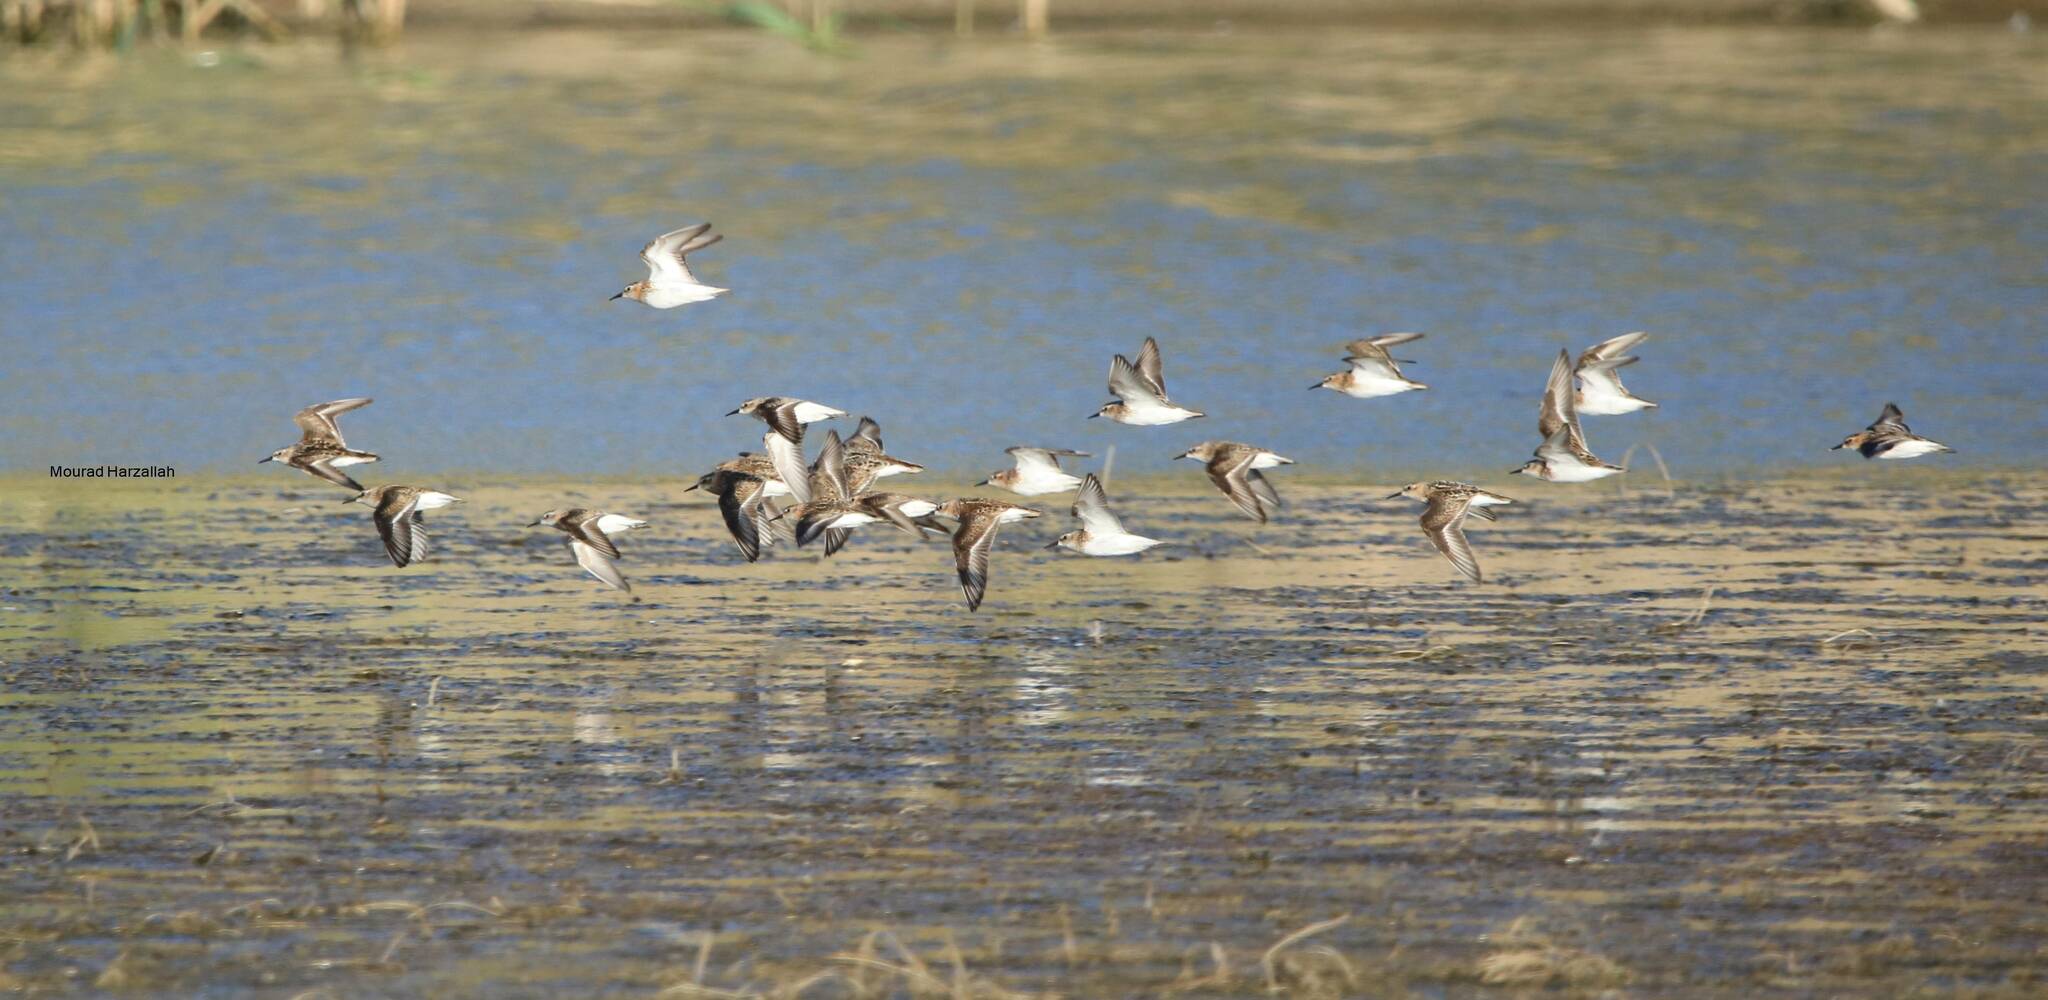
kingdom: Animalia
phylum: Chordata
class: Aves
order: Charadriiformes
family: Scolopacidae
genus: Calidris
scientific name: Calidris minuta
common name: Little stint
